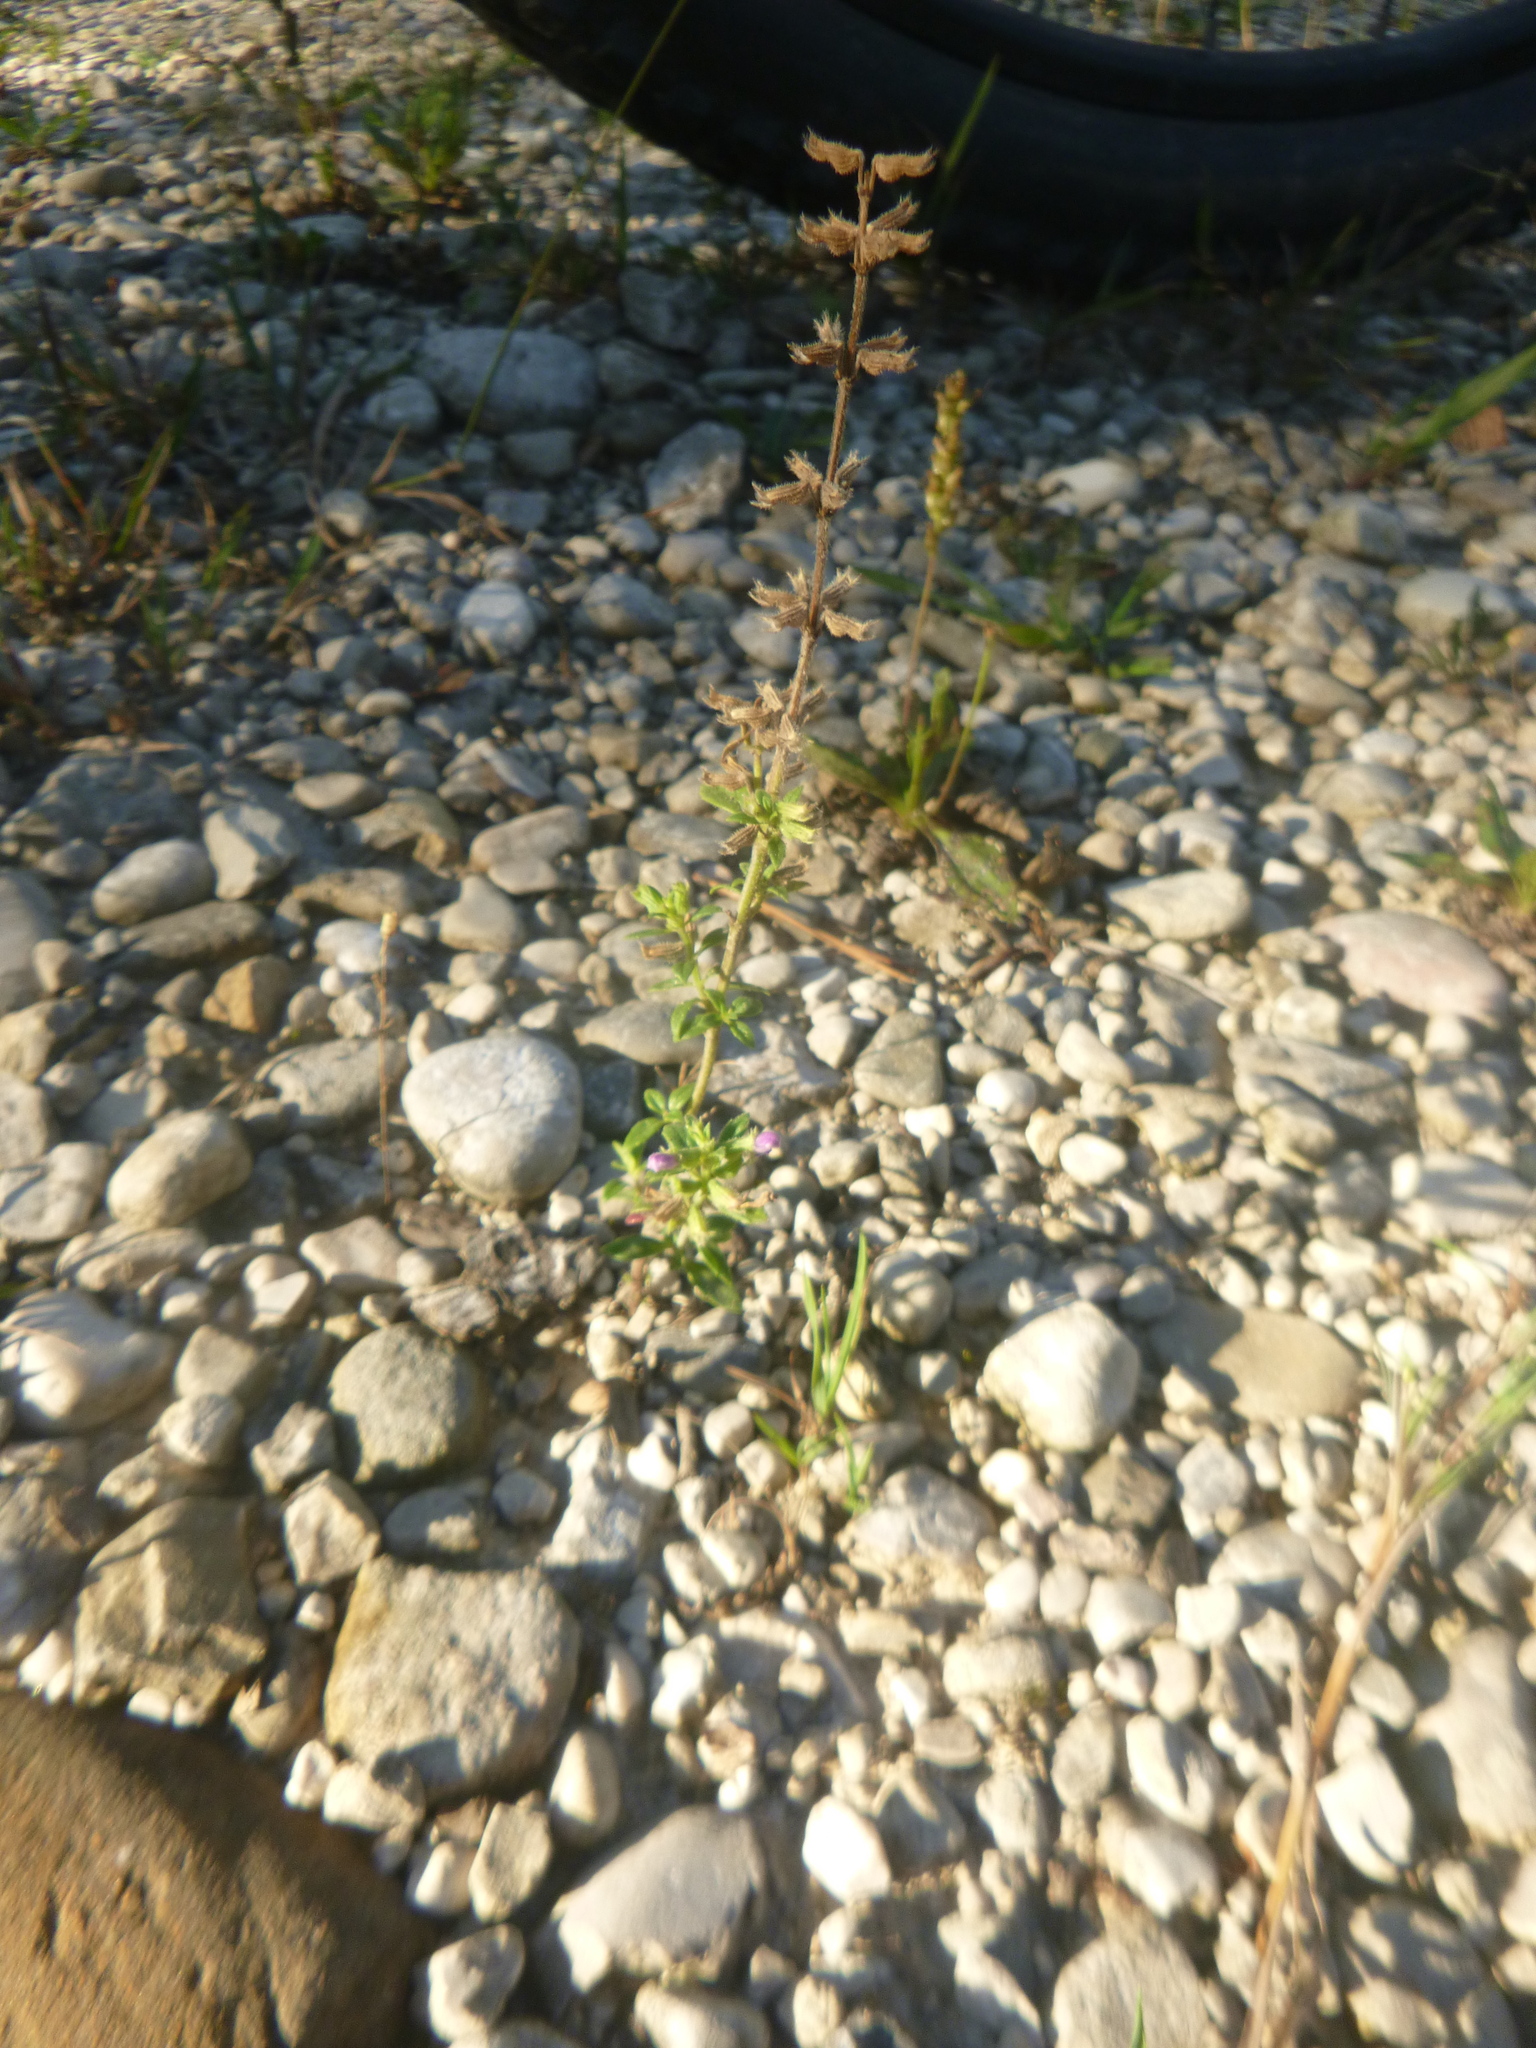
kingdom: Plantae
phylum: Tracheophyta
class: Magnoliopsida
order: Lamiales
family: Lamiaceae
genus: Clinopodium
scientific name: Clinopodium acinos
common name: Basil thyme
